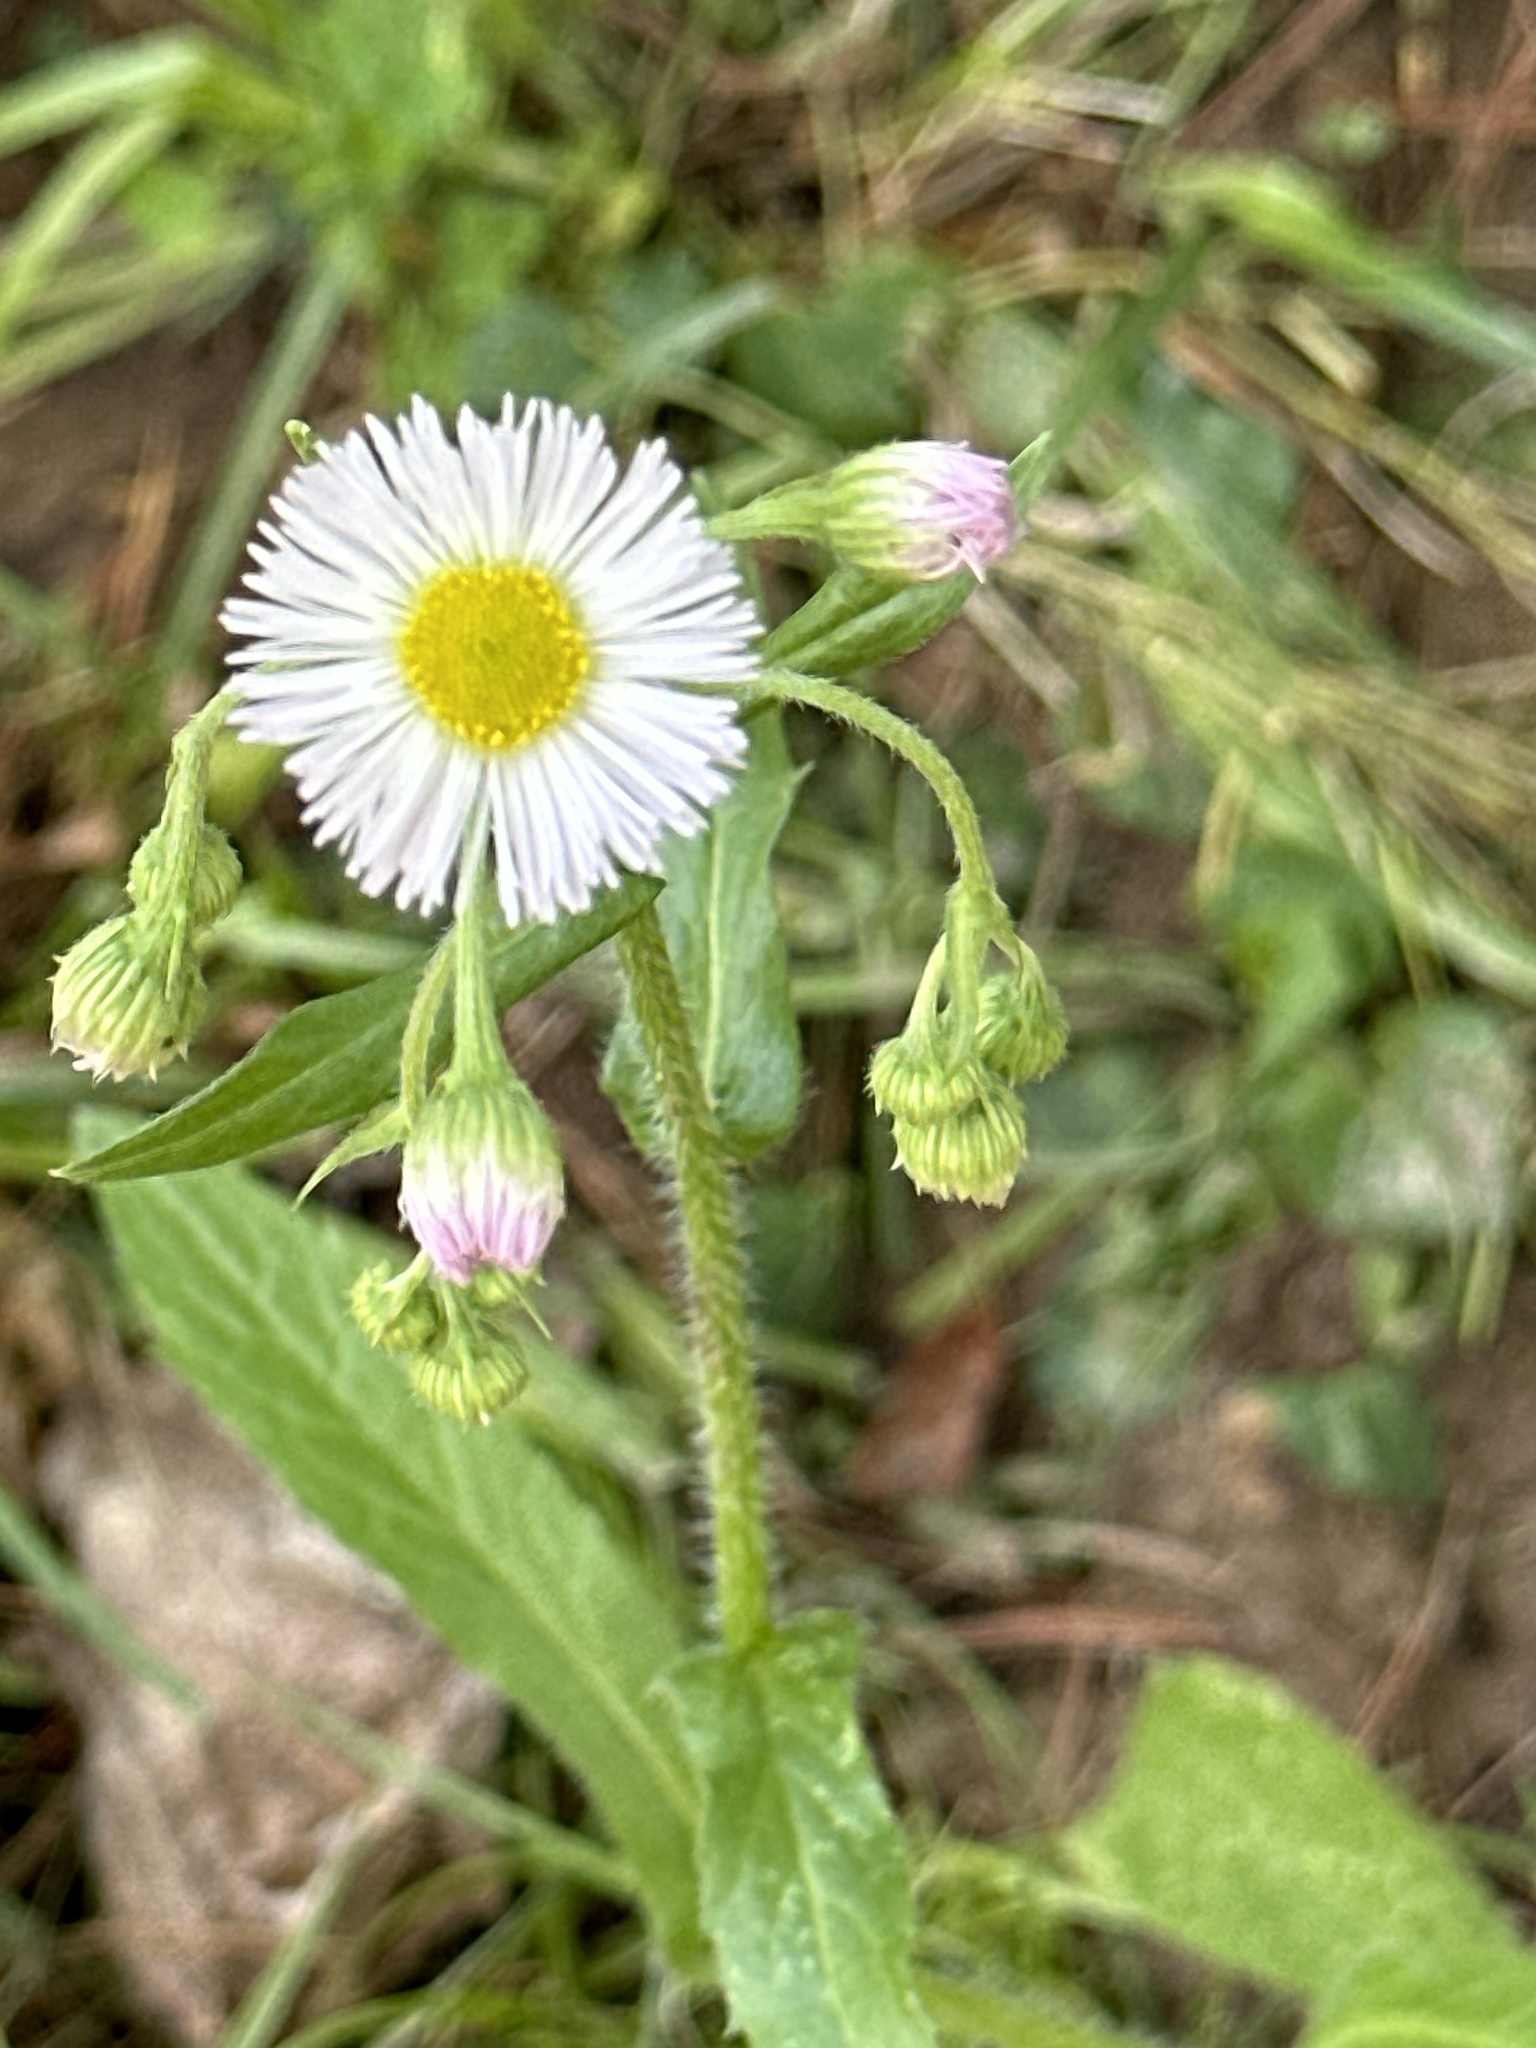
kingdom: Plantae
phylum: Tracheophyta
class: Magnoliopsida
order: Asterales
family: Asteraceae
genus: Erigeron
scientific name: Erigeron philadelphicus
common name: Robin's-plantain
